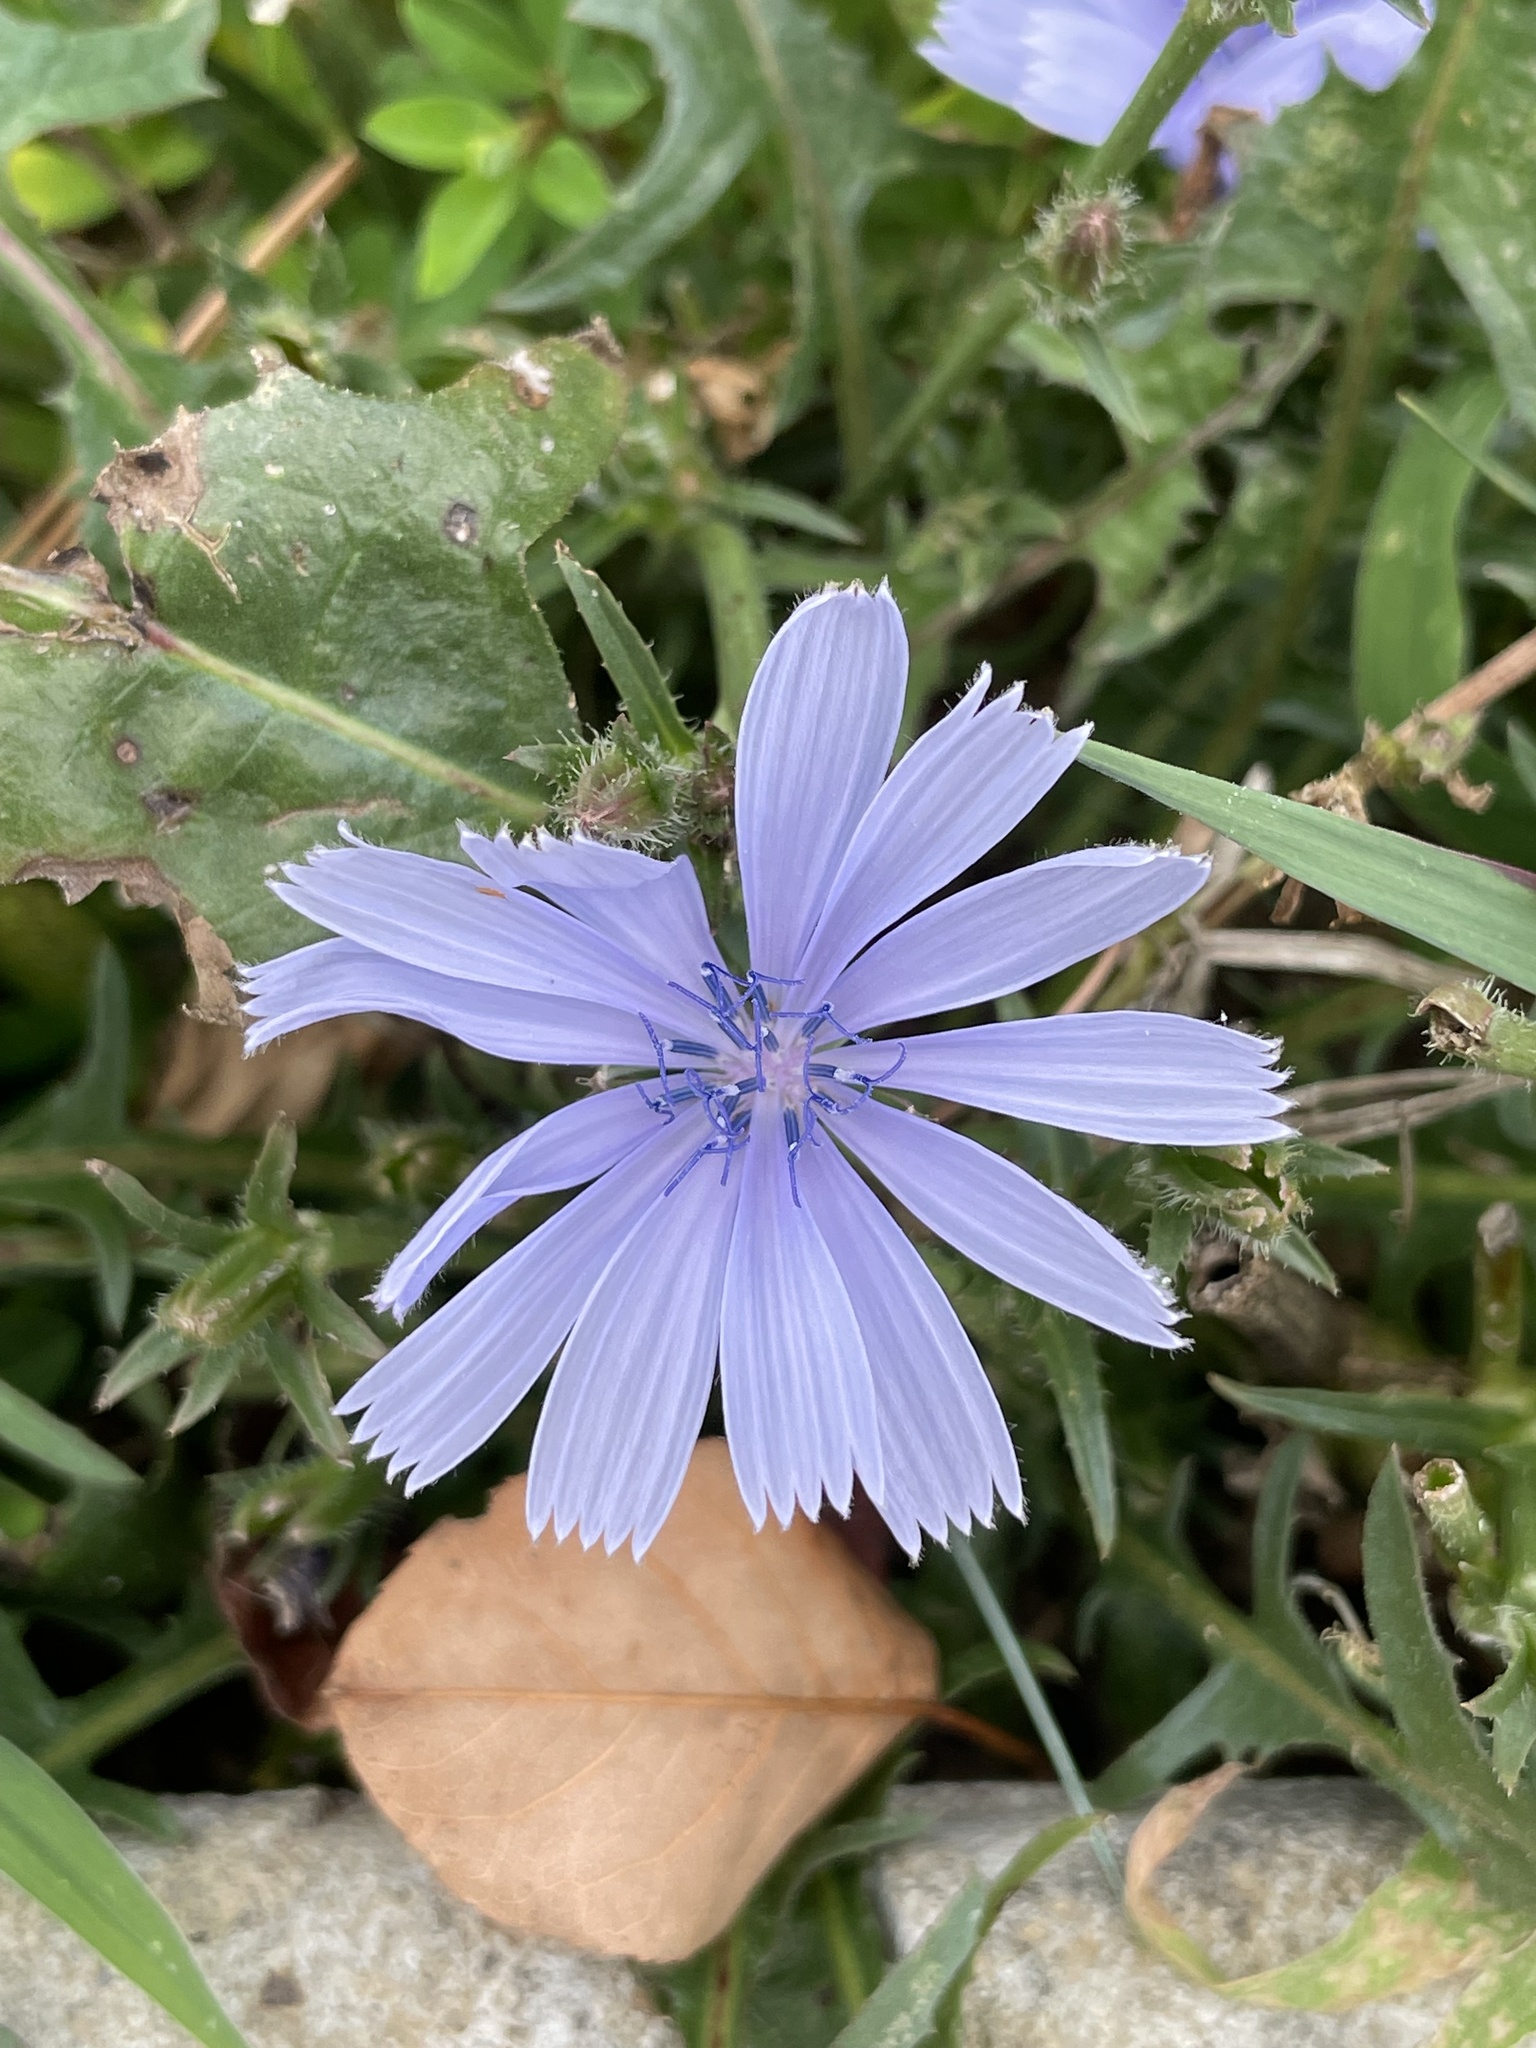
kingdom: Plantae
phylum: Tracheophyta
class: Magnoliopsida
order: Asterales
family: Asteraceae
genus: Cichorium
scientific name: Cichorium intybus
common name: Chicory
